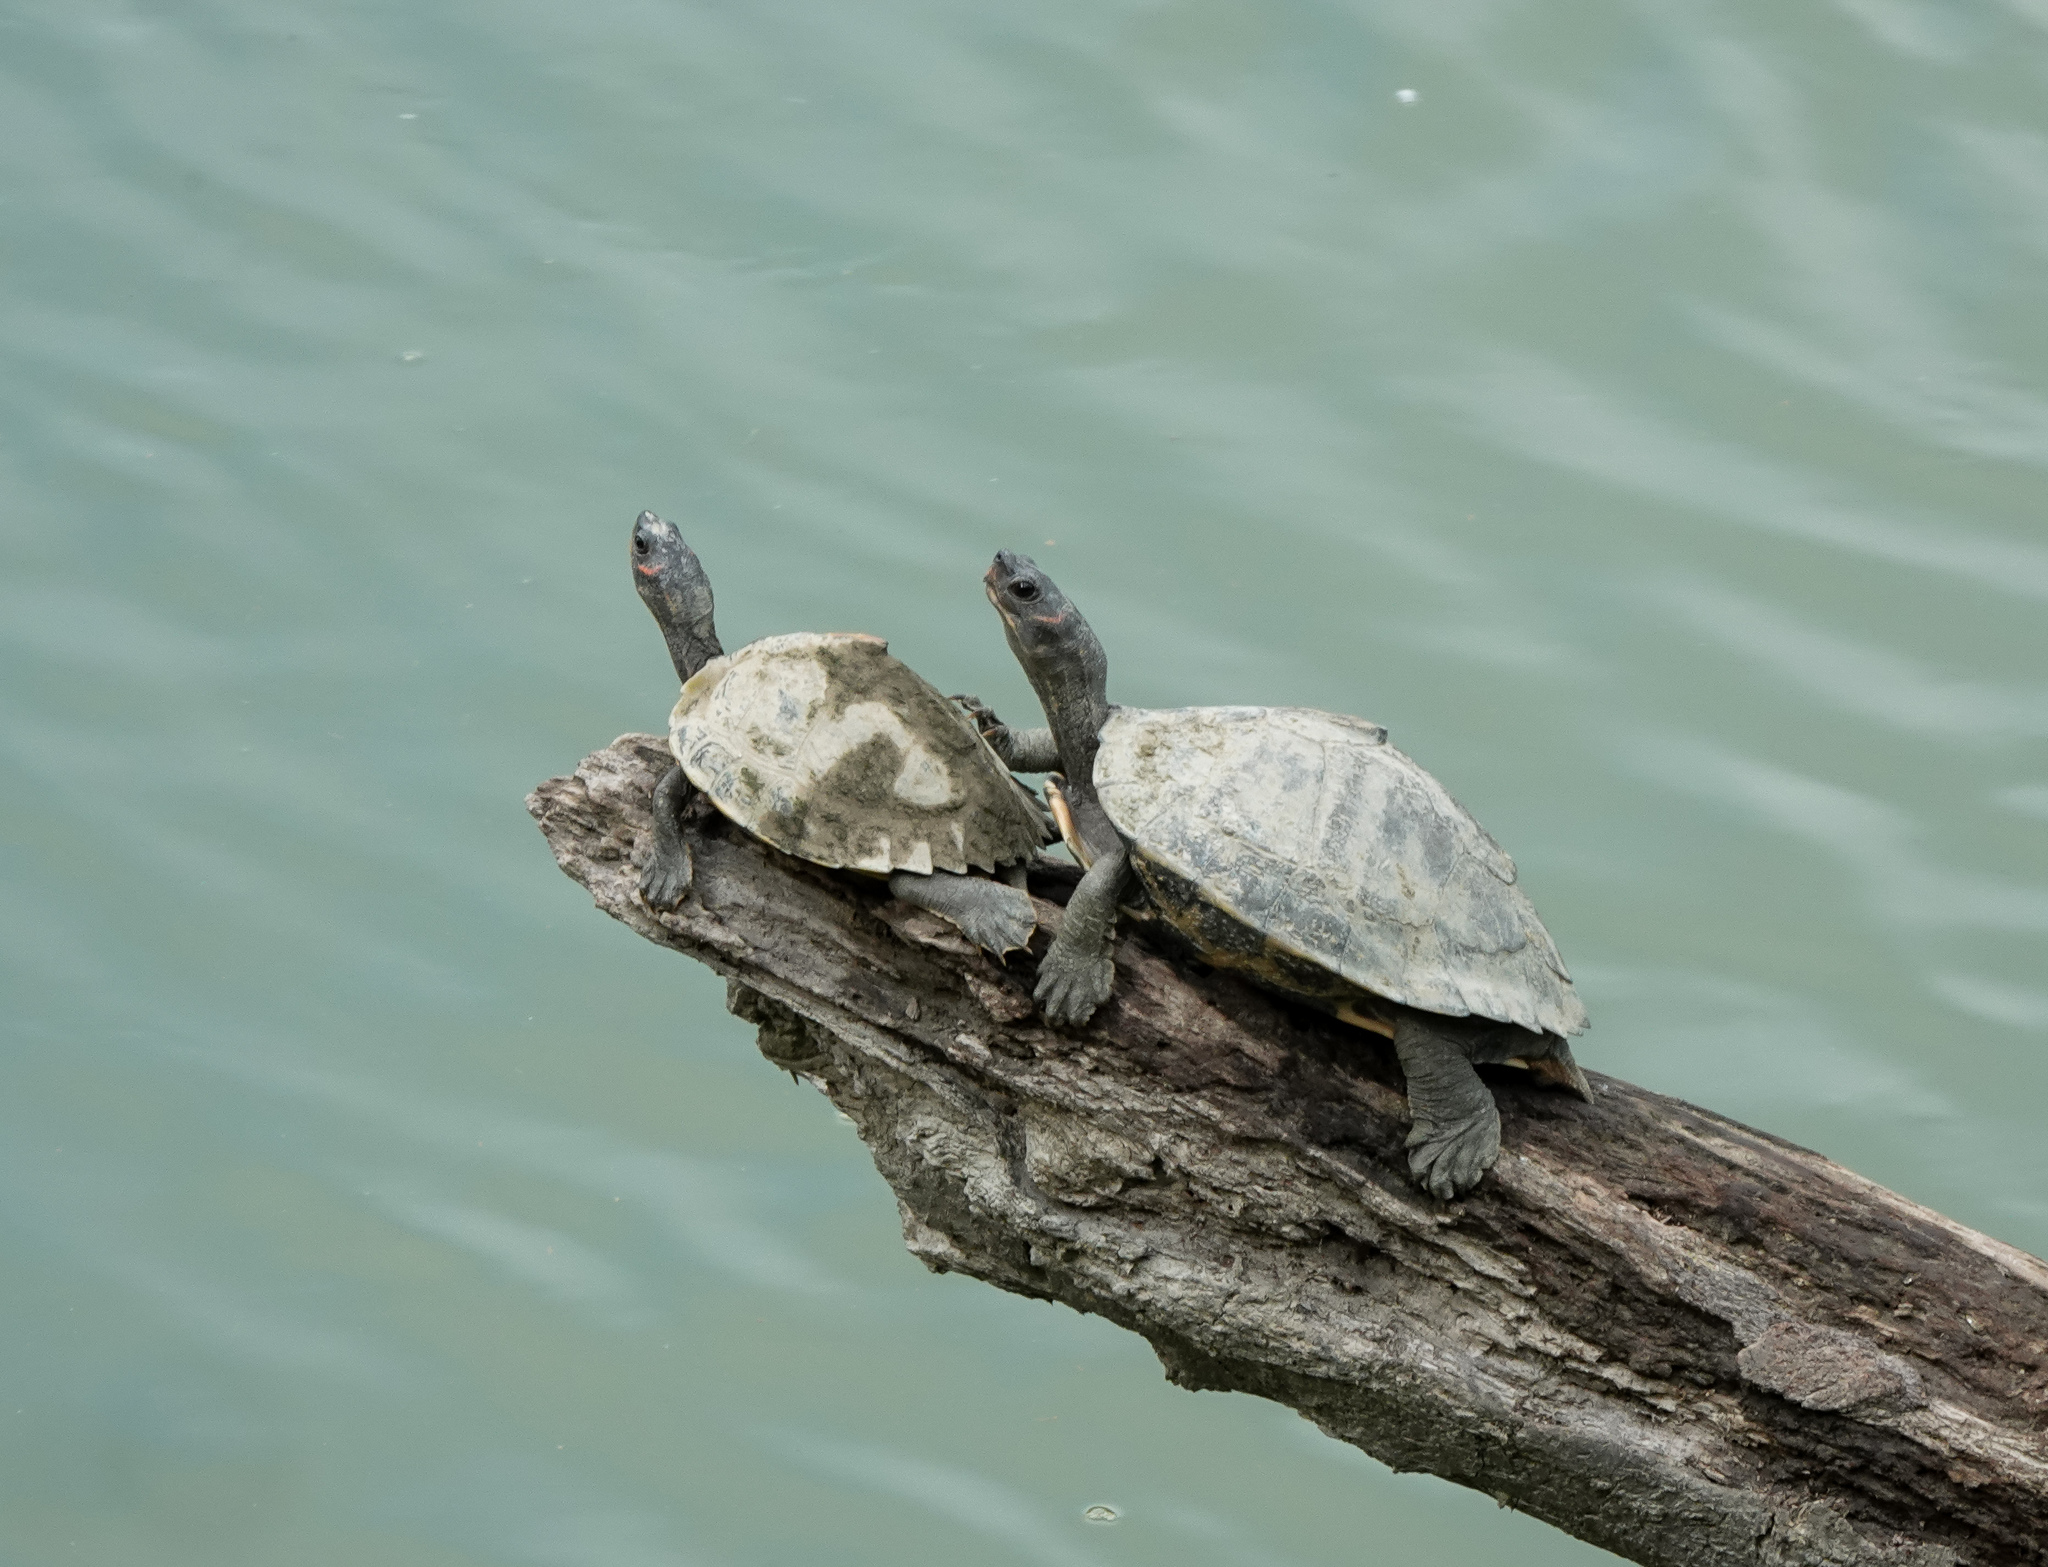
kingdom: Animalia
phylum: Chordata
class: Testudines
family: Geoemydidae
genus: Pangshura
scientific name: Pangshura sylhetensis
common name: Assam roofed turtle
